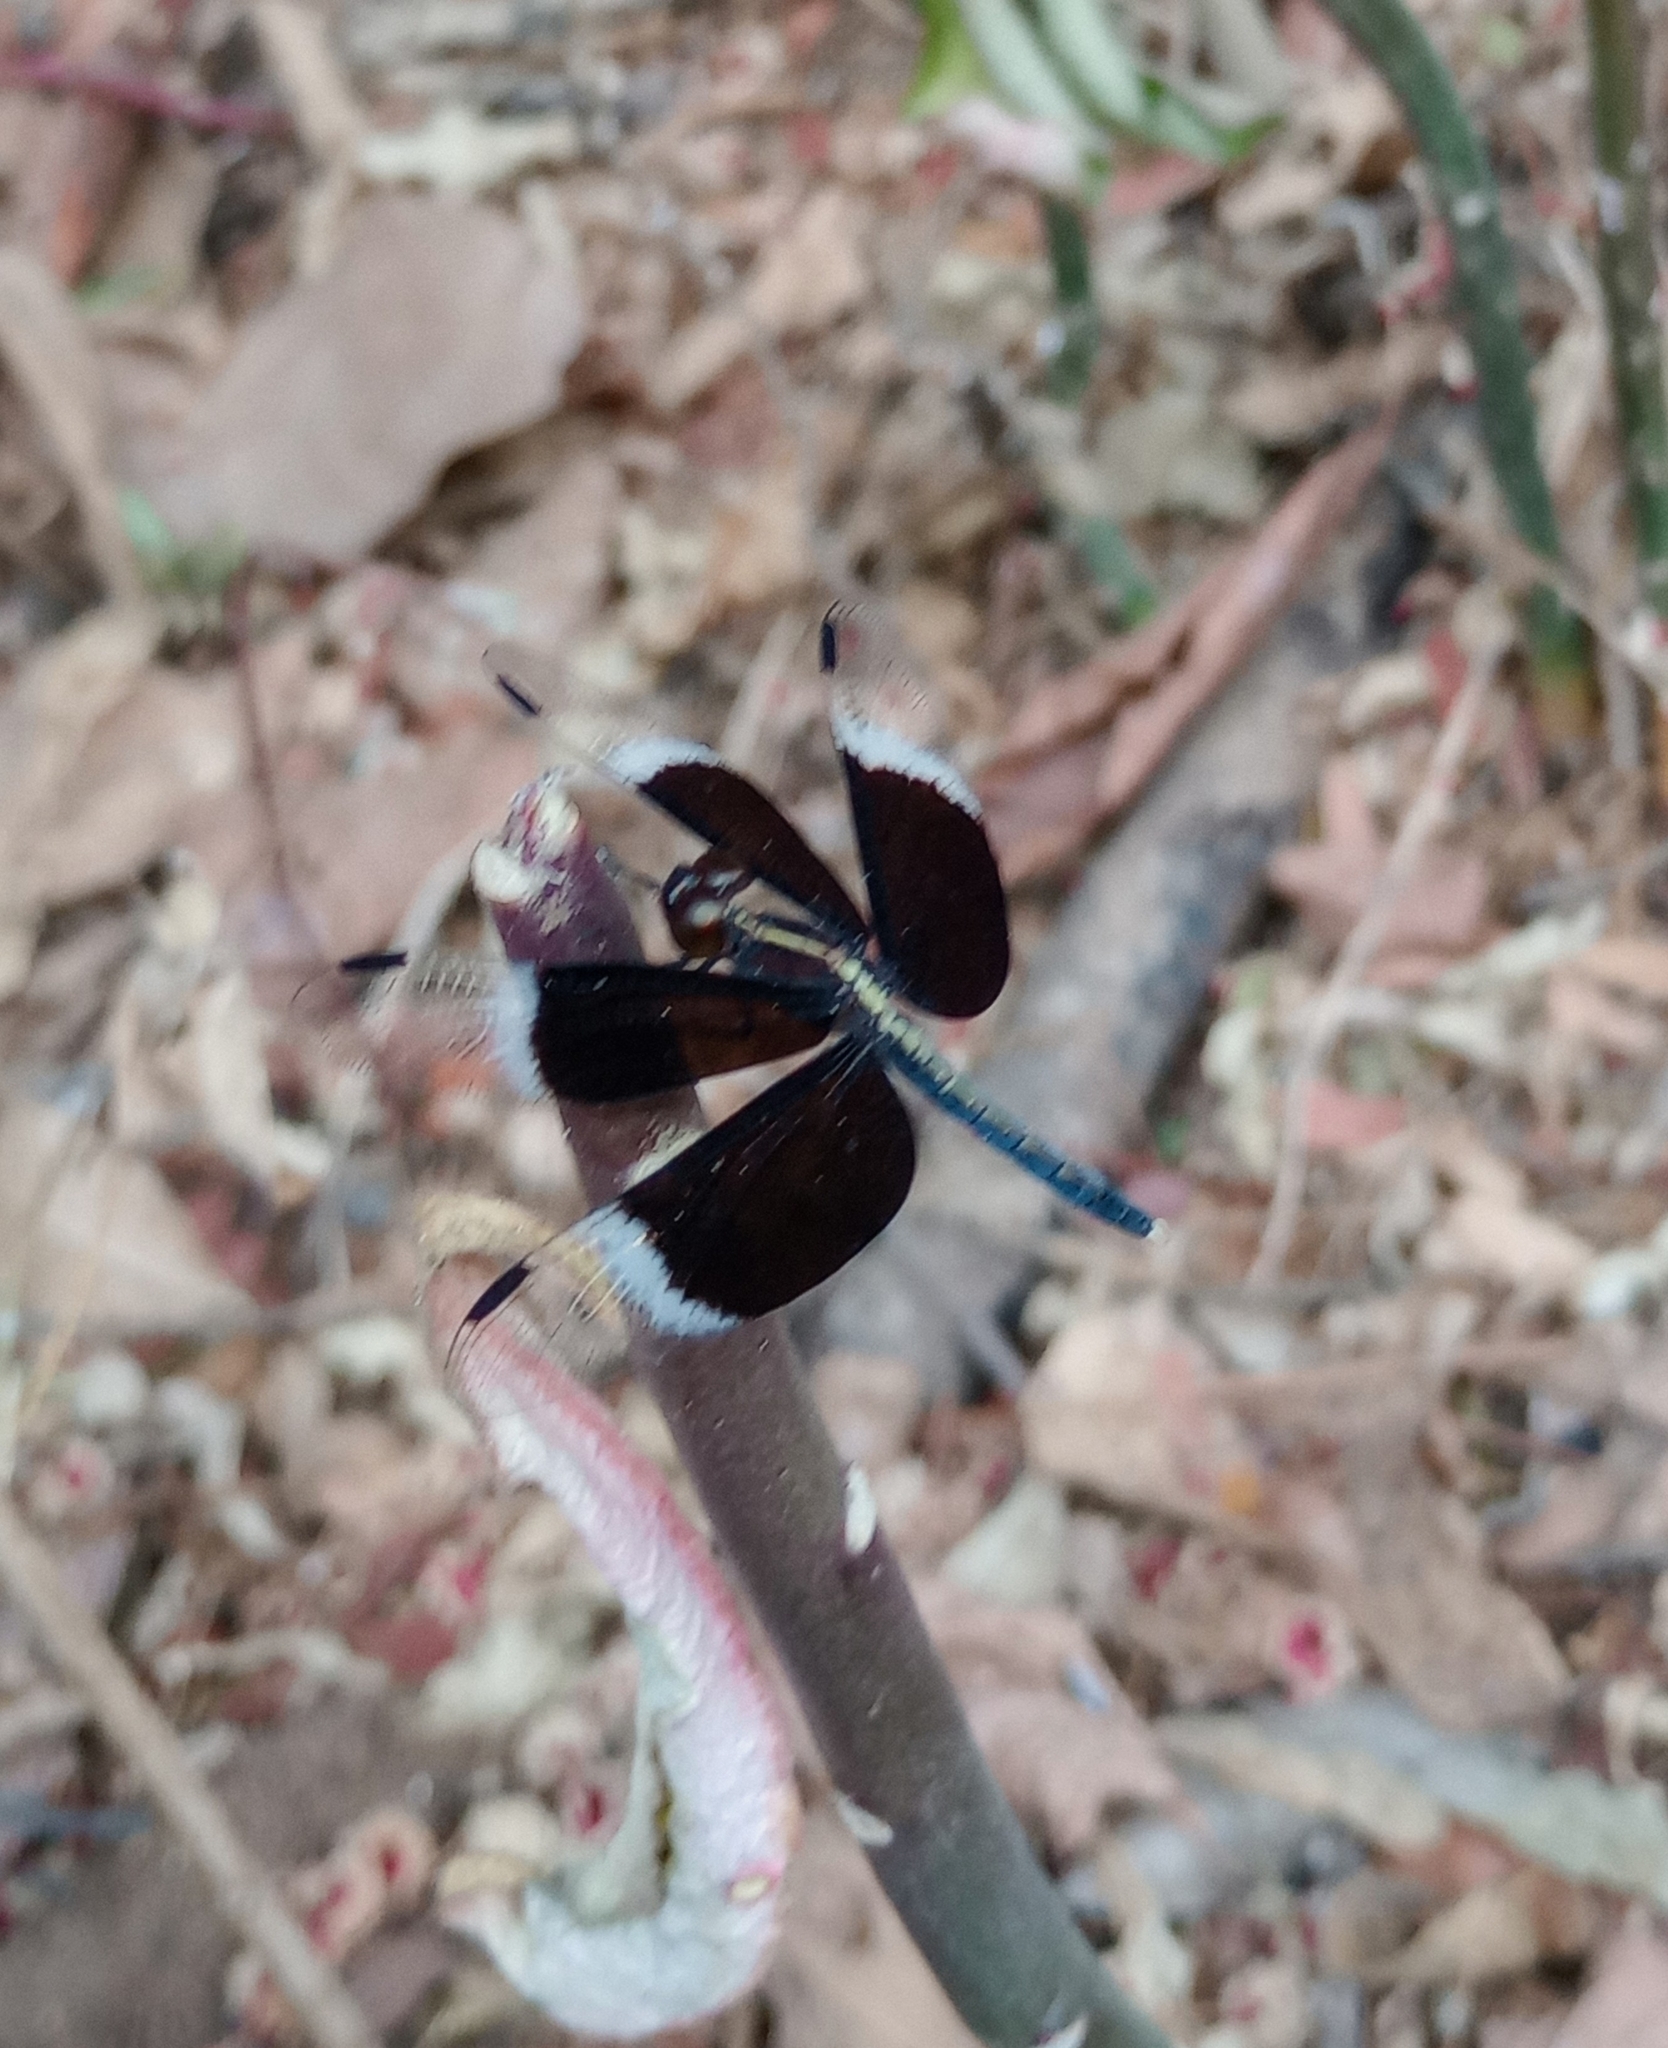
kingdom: Animalia
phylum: Arthropoda
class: Insecta
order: Odonata
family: Libellulidae
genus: Neurothemis
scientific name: Neurothemis tullia
